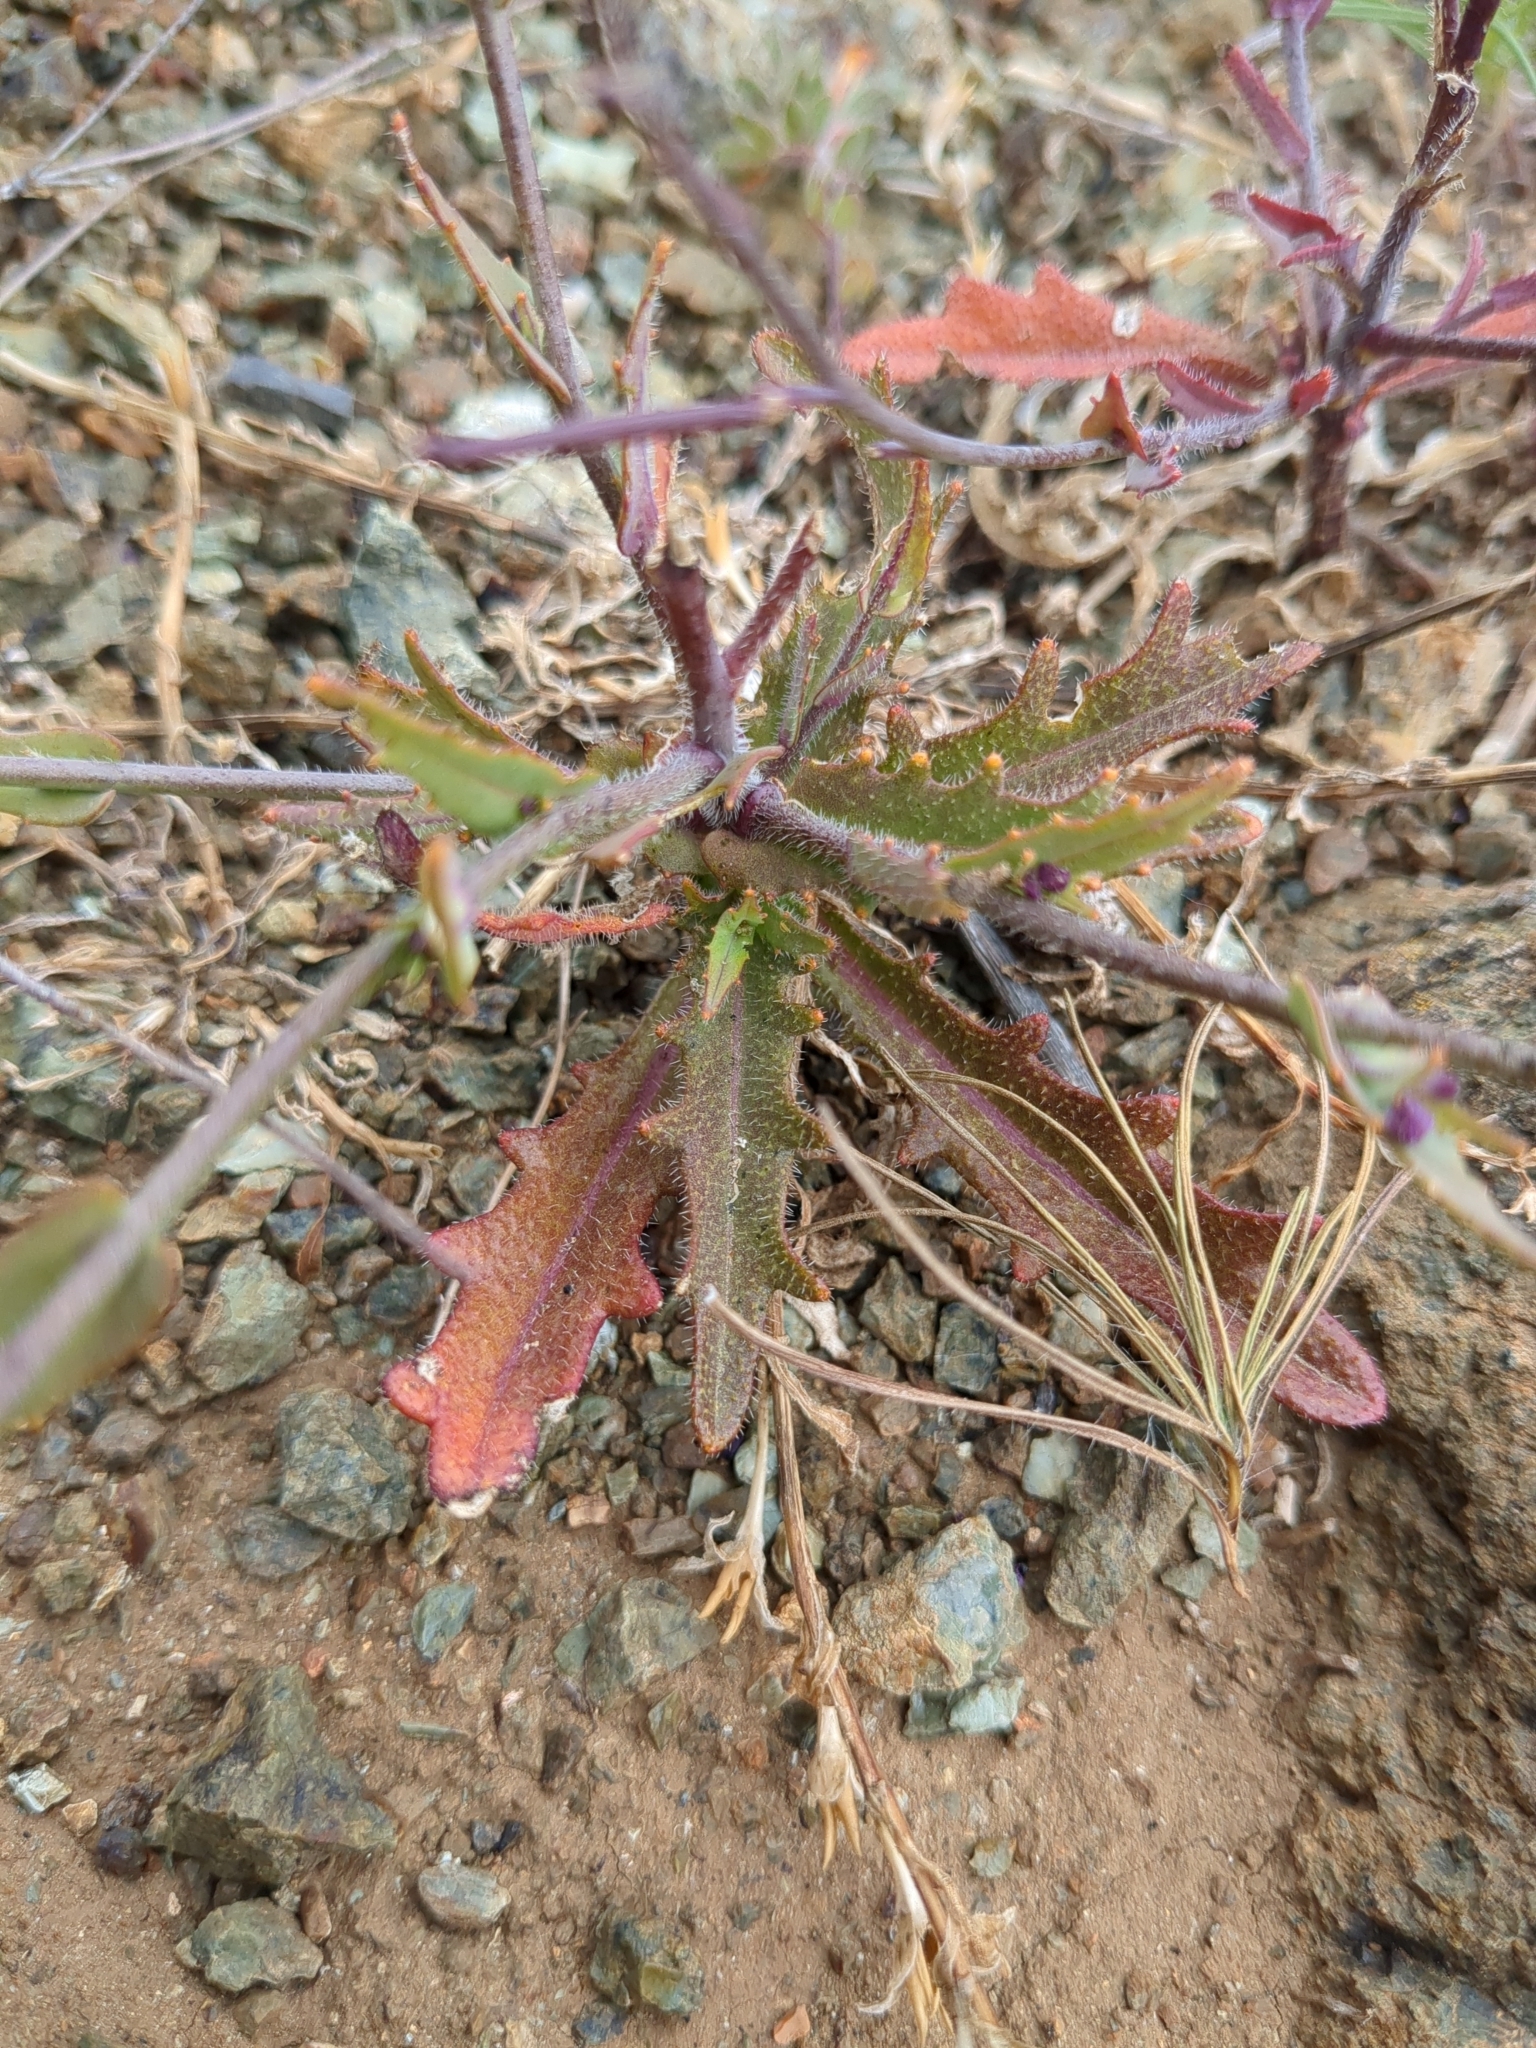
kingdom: Plantae
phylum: Tracheophyta
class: Magnoliopsida
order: Brassicales
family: Brassicaceae
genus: Streptanthus
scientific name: Streptanthus glandulosus
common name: Jewel-flower
